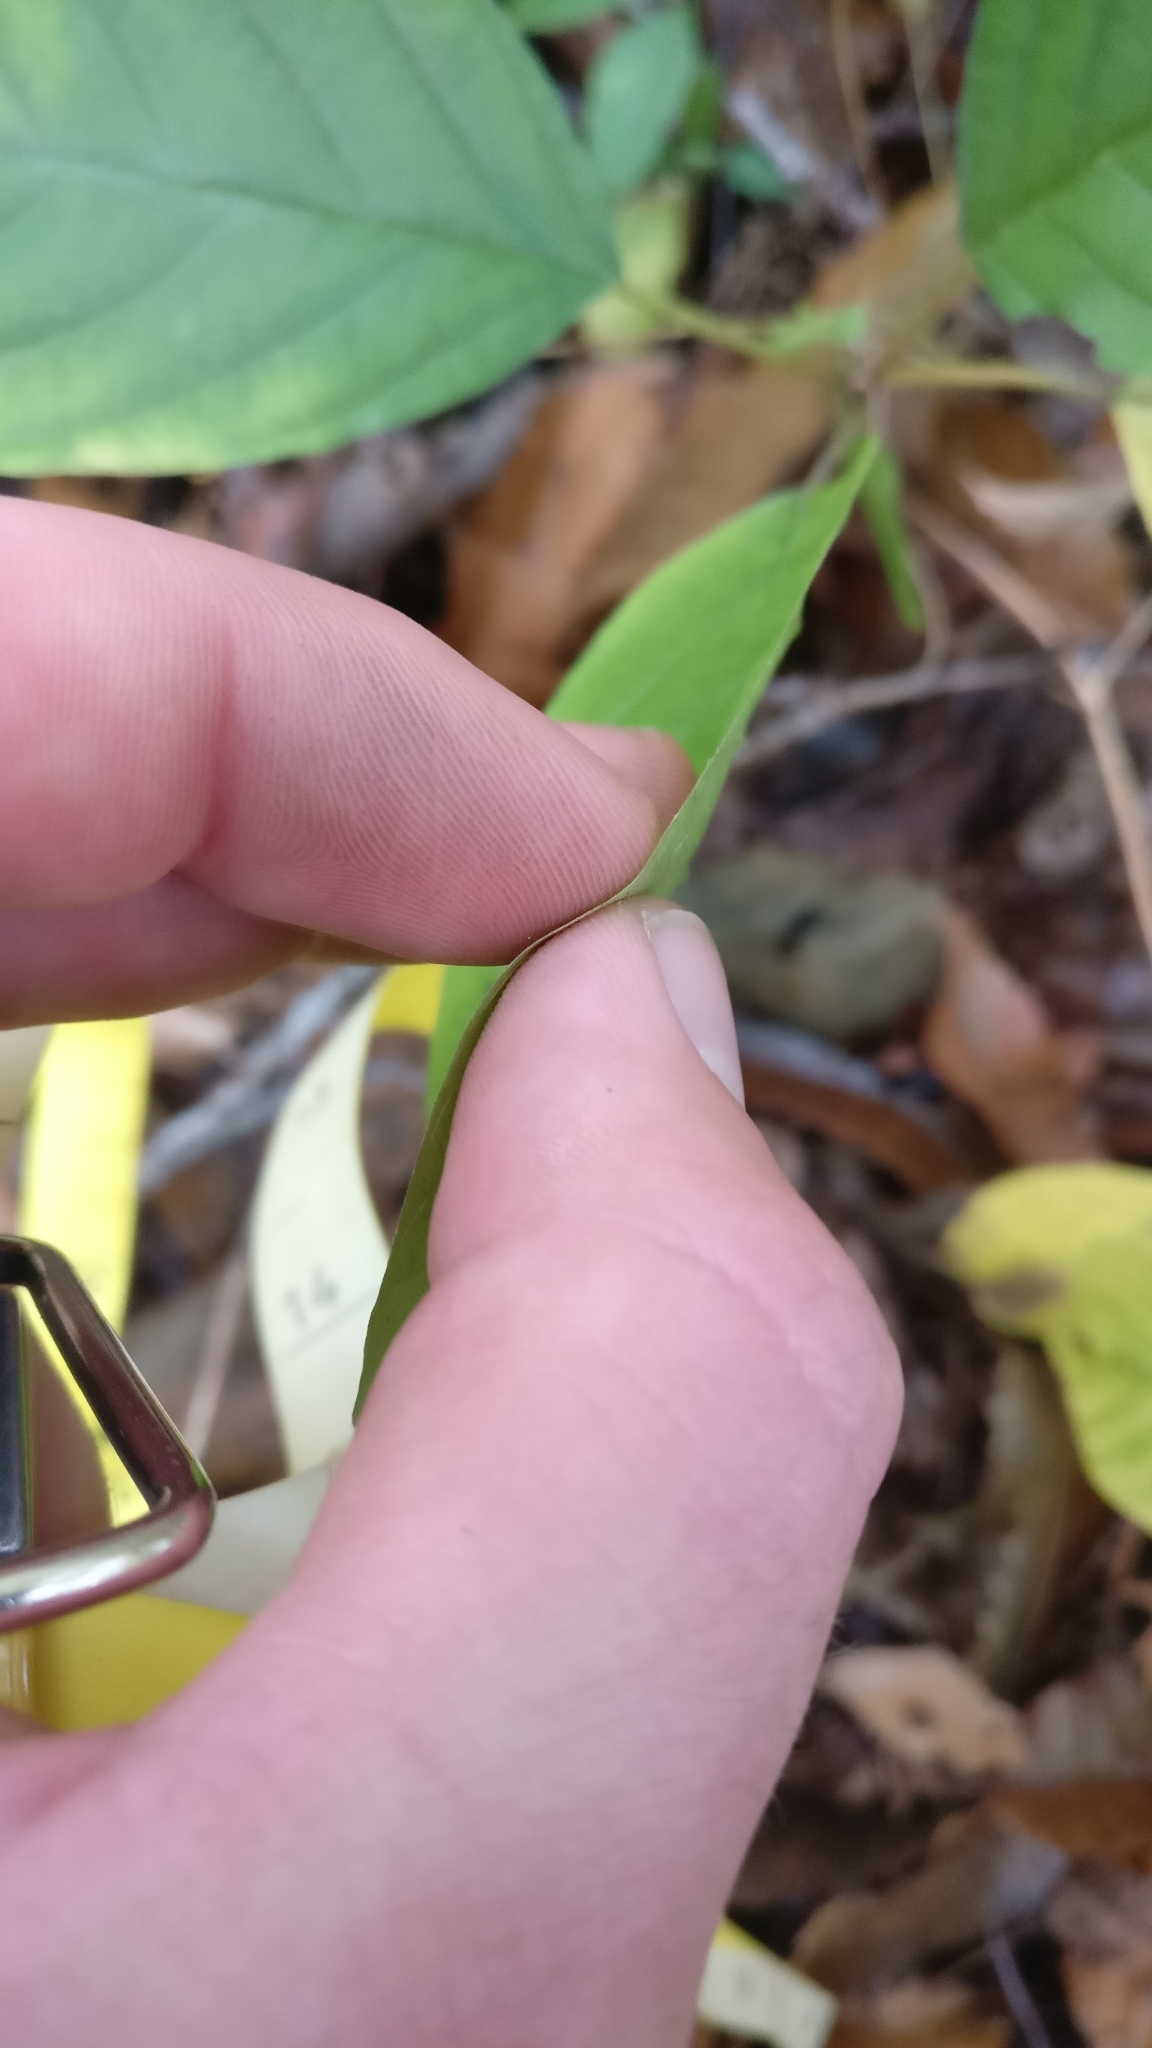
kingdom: Plantae
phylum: Tracheophyta
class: Magnoliopsida
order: Rosales
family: Rhamnaceae
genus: Frangula
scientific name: Frangula alnus
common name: Alder buckthorn
